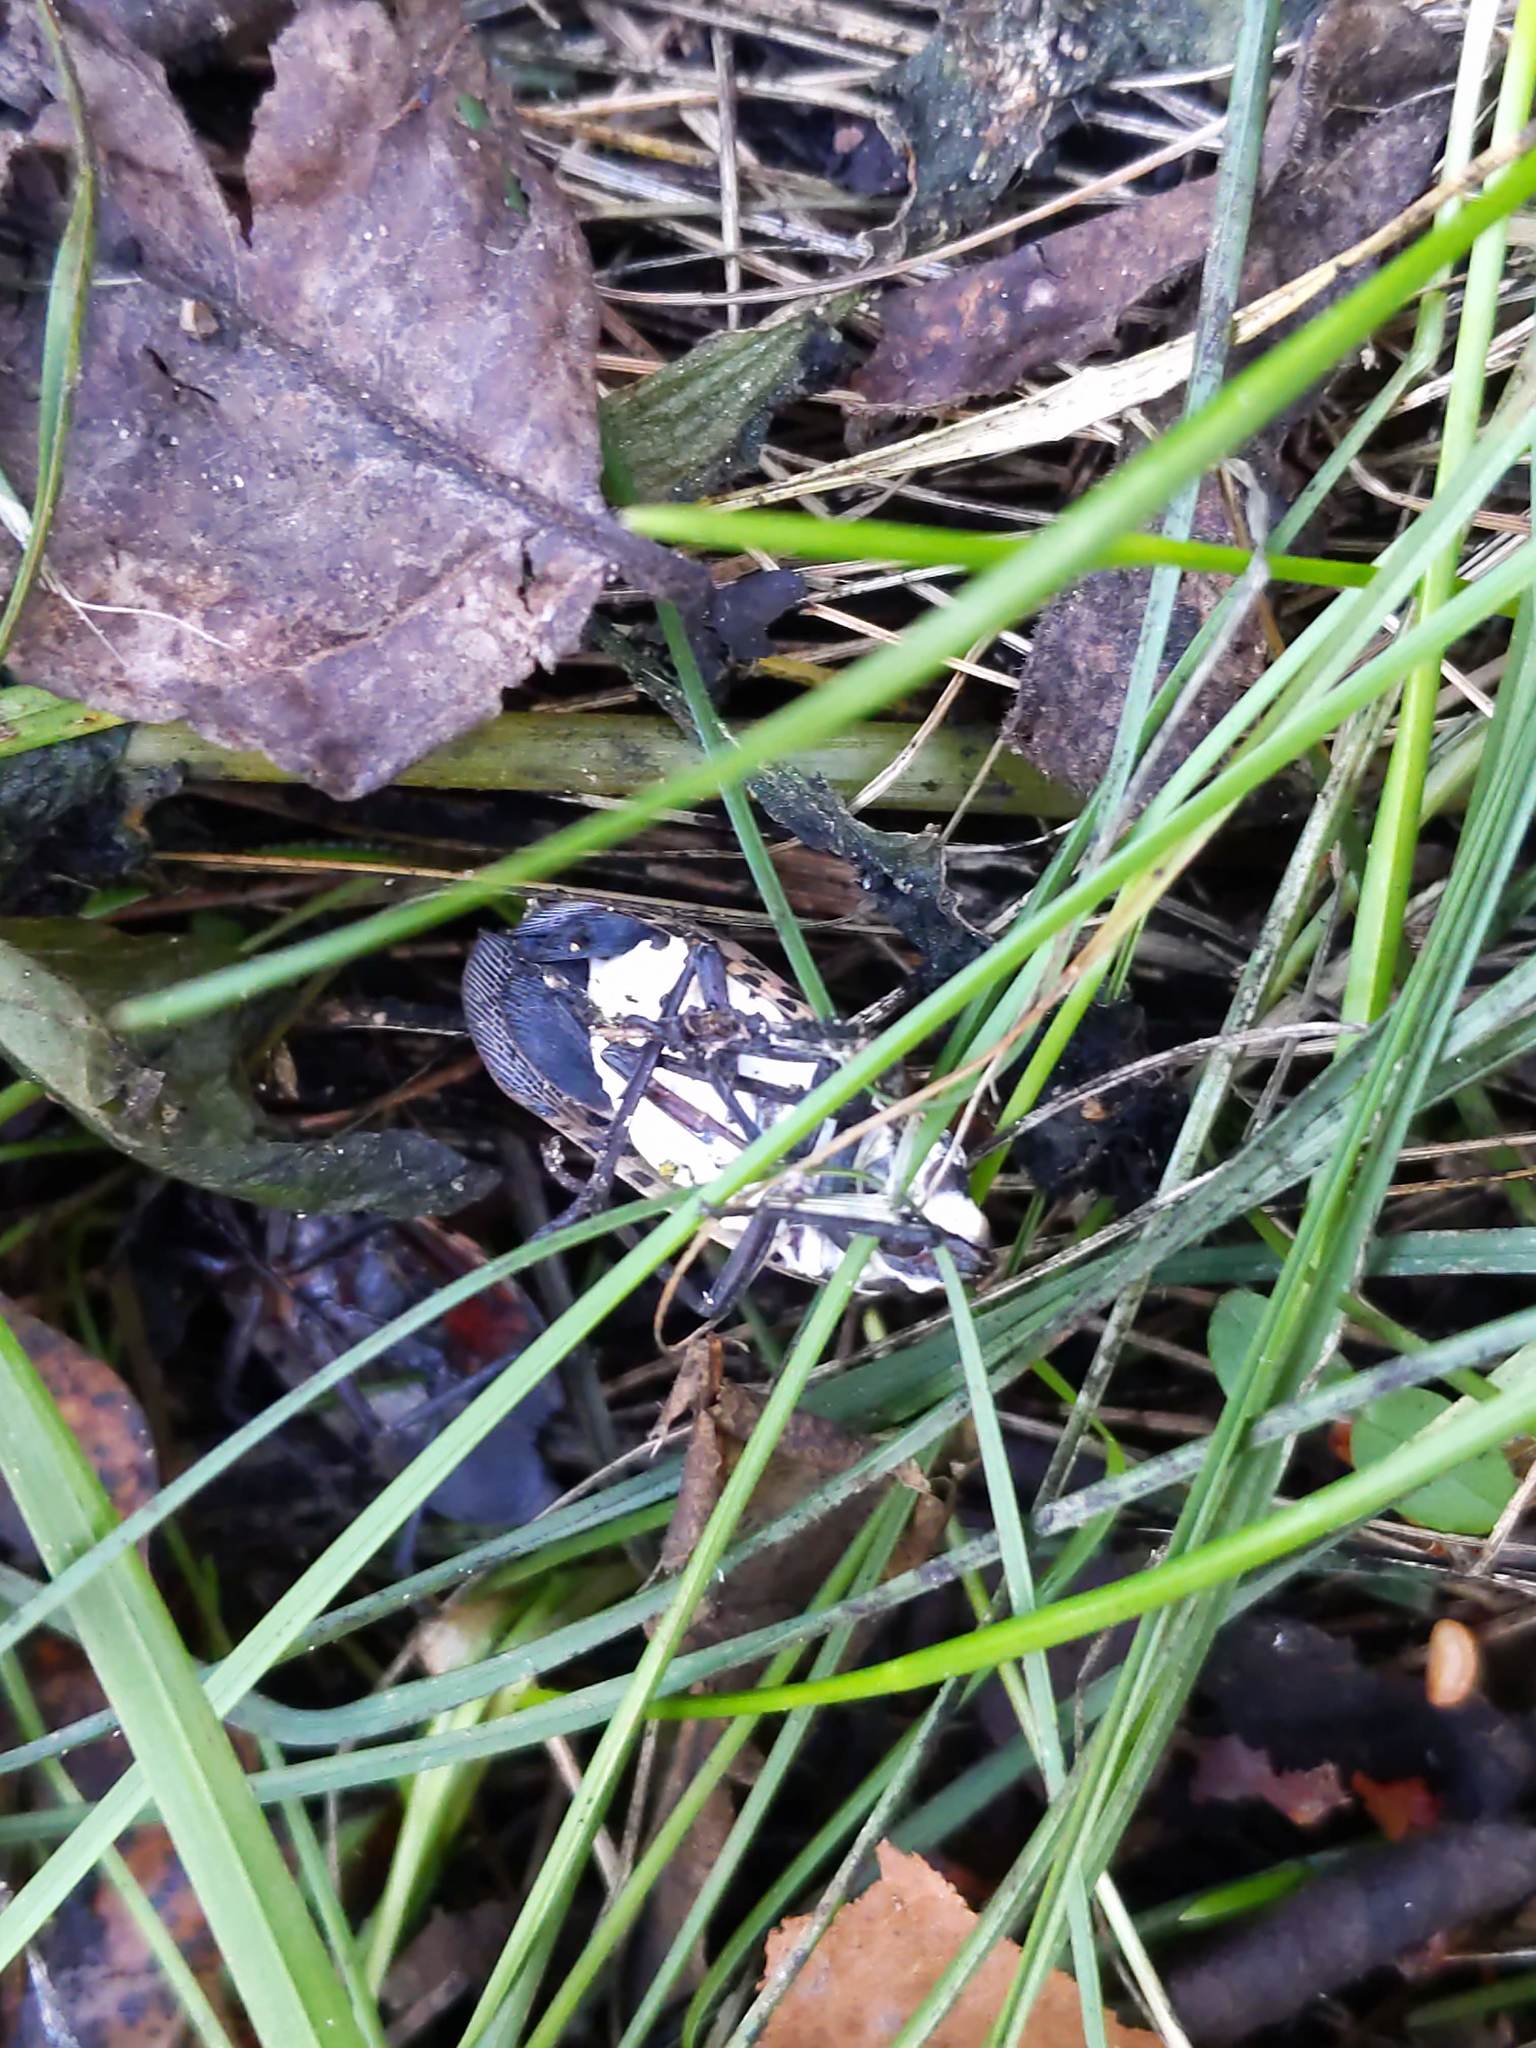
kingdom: Fungi
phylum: Ascomycota
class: Sordariomycetes
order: Hypocreales
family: Cordycipitaceae
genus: Beauveria
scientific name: Beauveria bassiana
